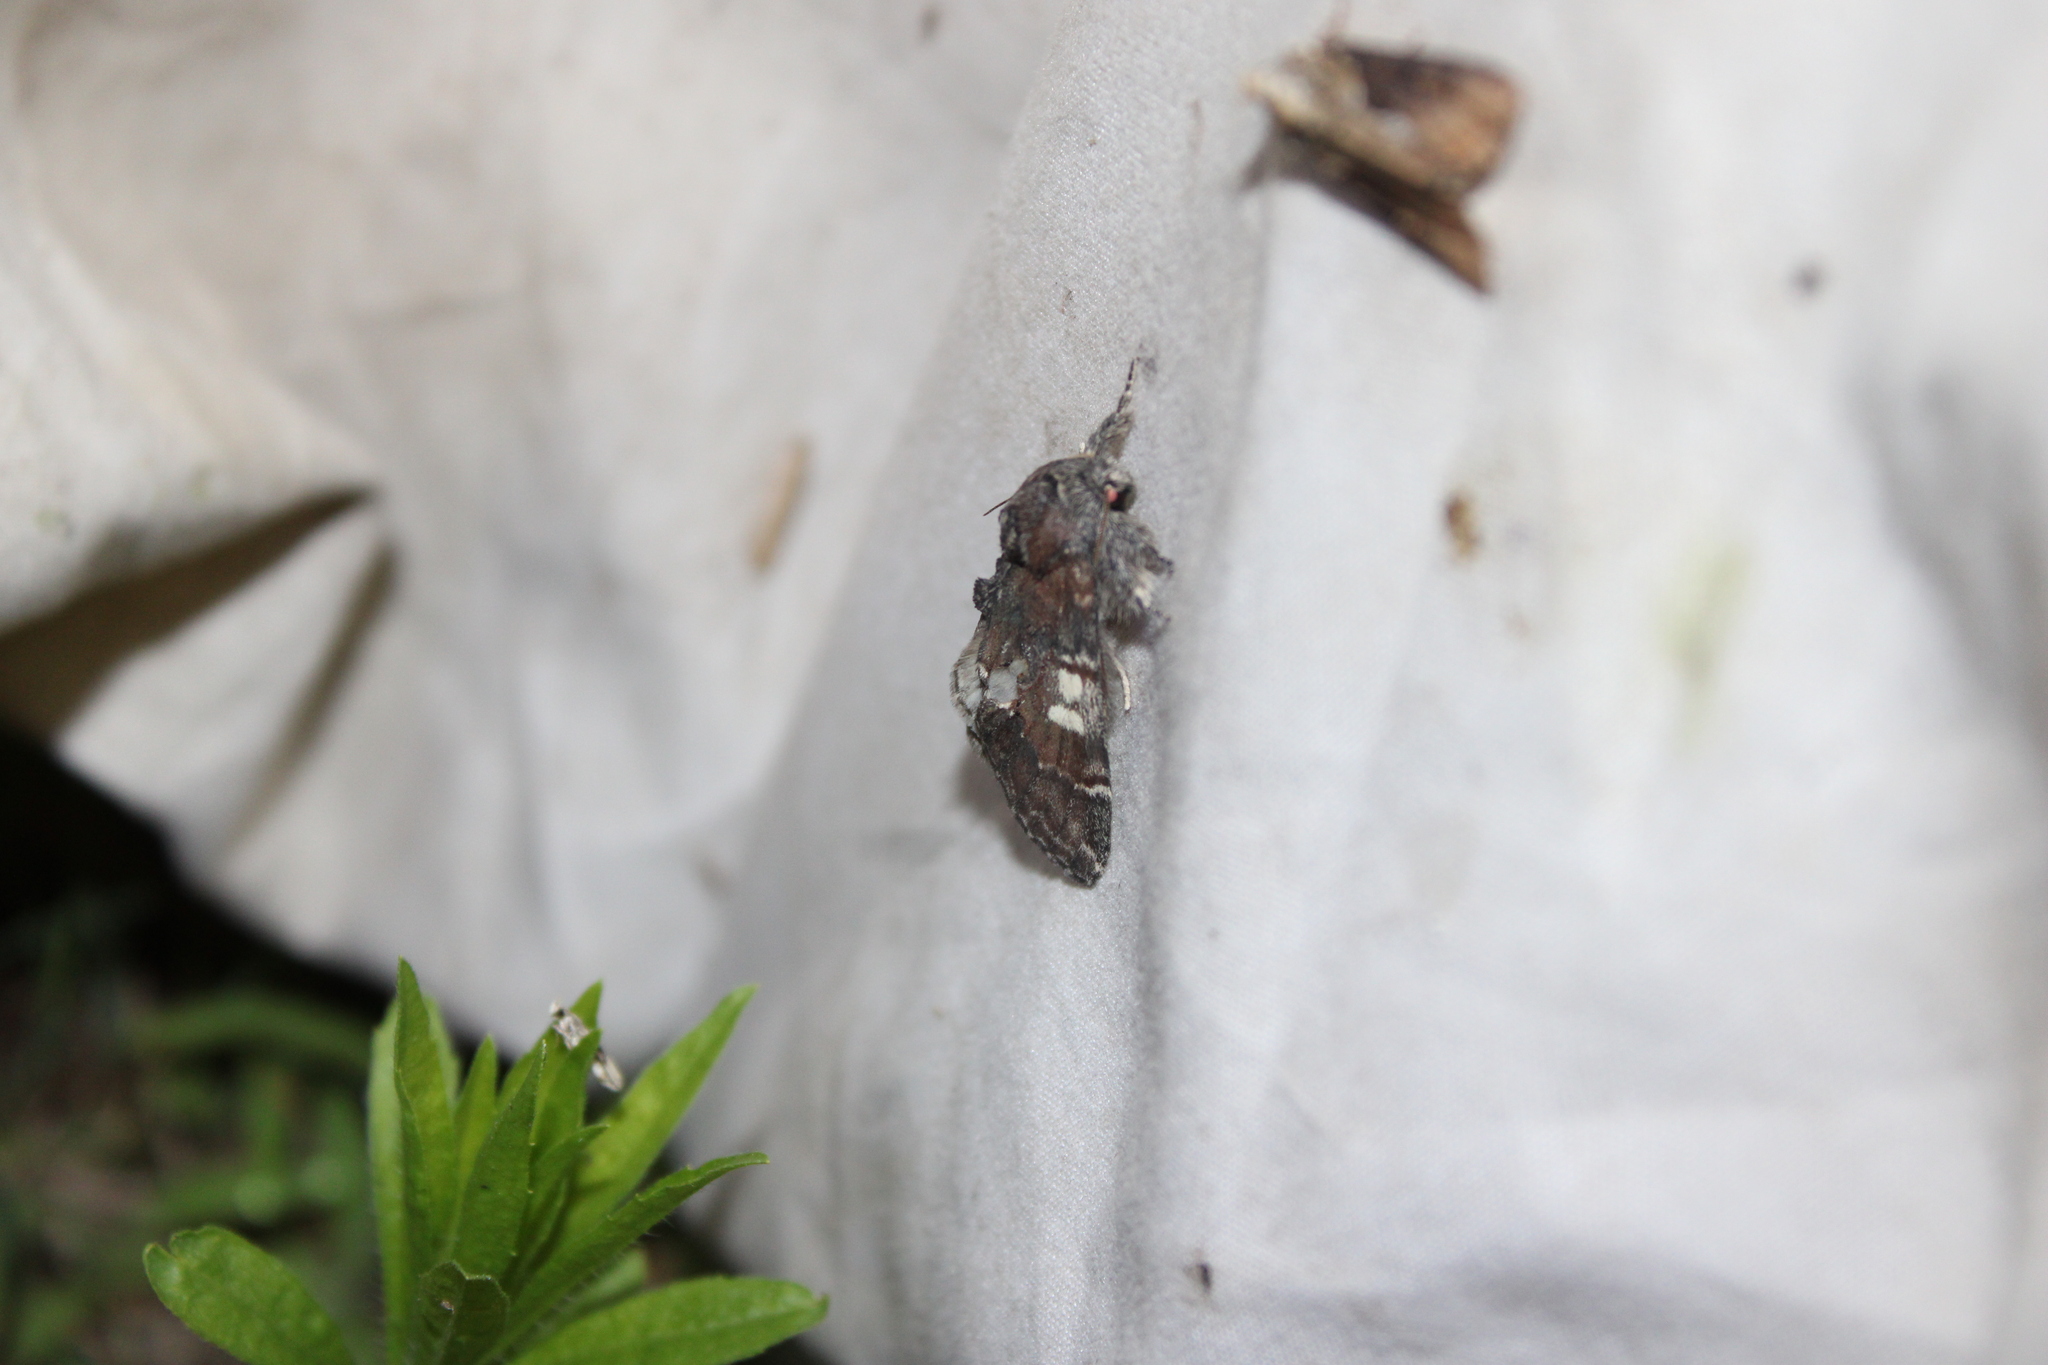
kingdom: Animalia
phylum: Arthropoda
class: Insecta
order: Lepidoptera
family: Notodontidae
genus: Peridea
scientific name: Peridea ferruginea
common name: Chocolate prominent
